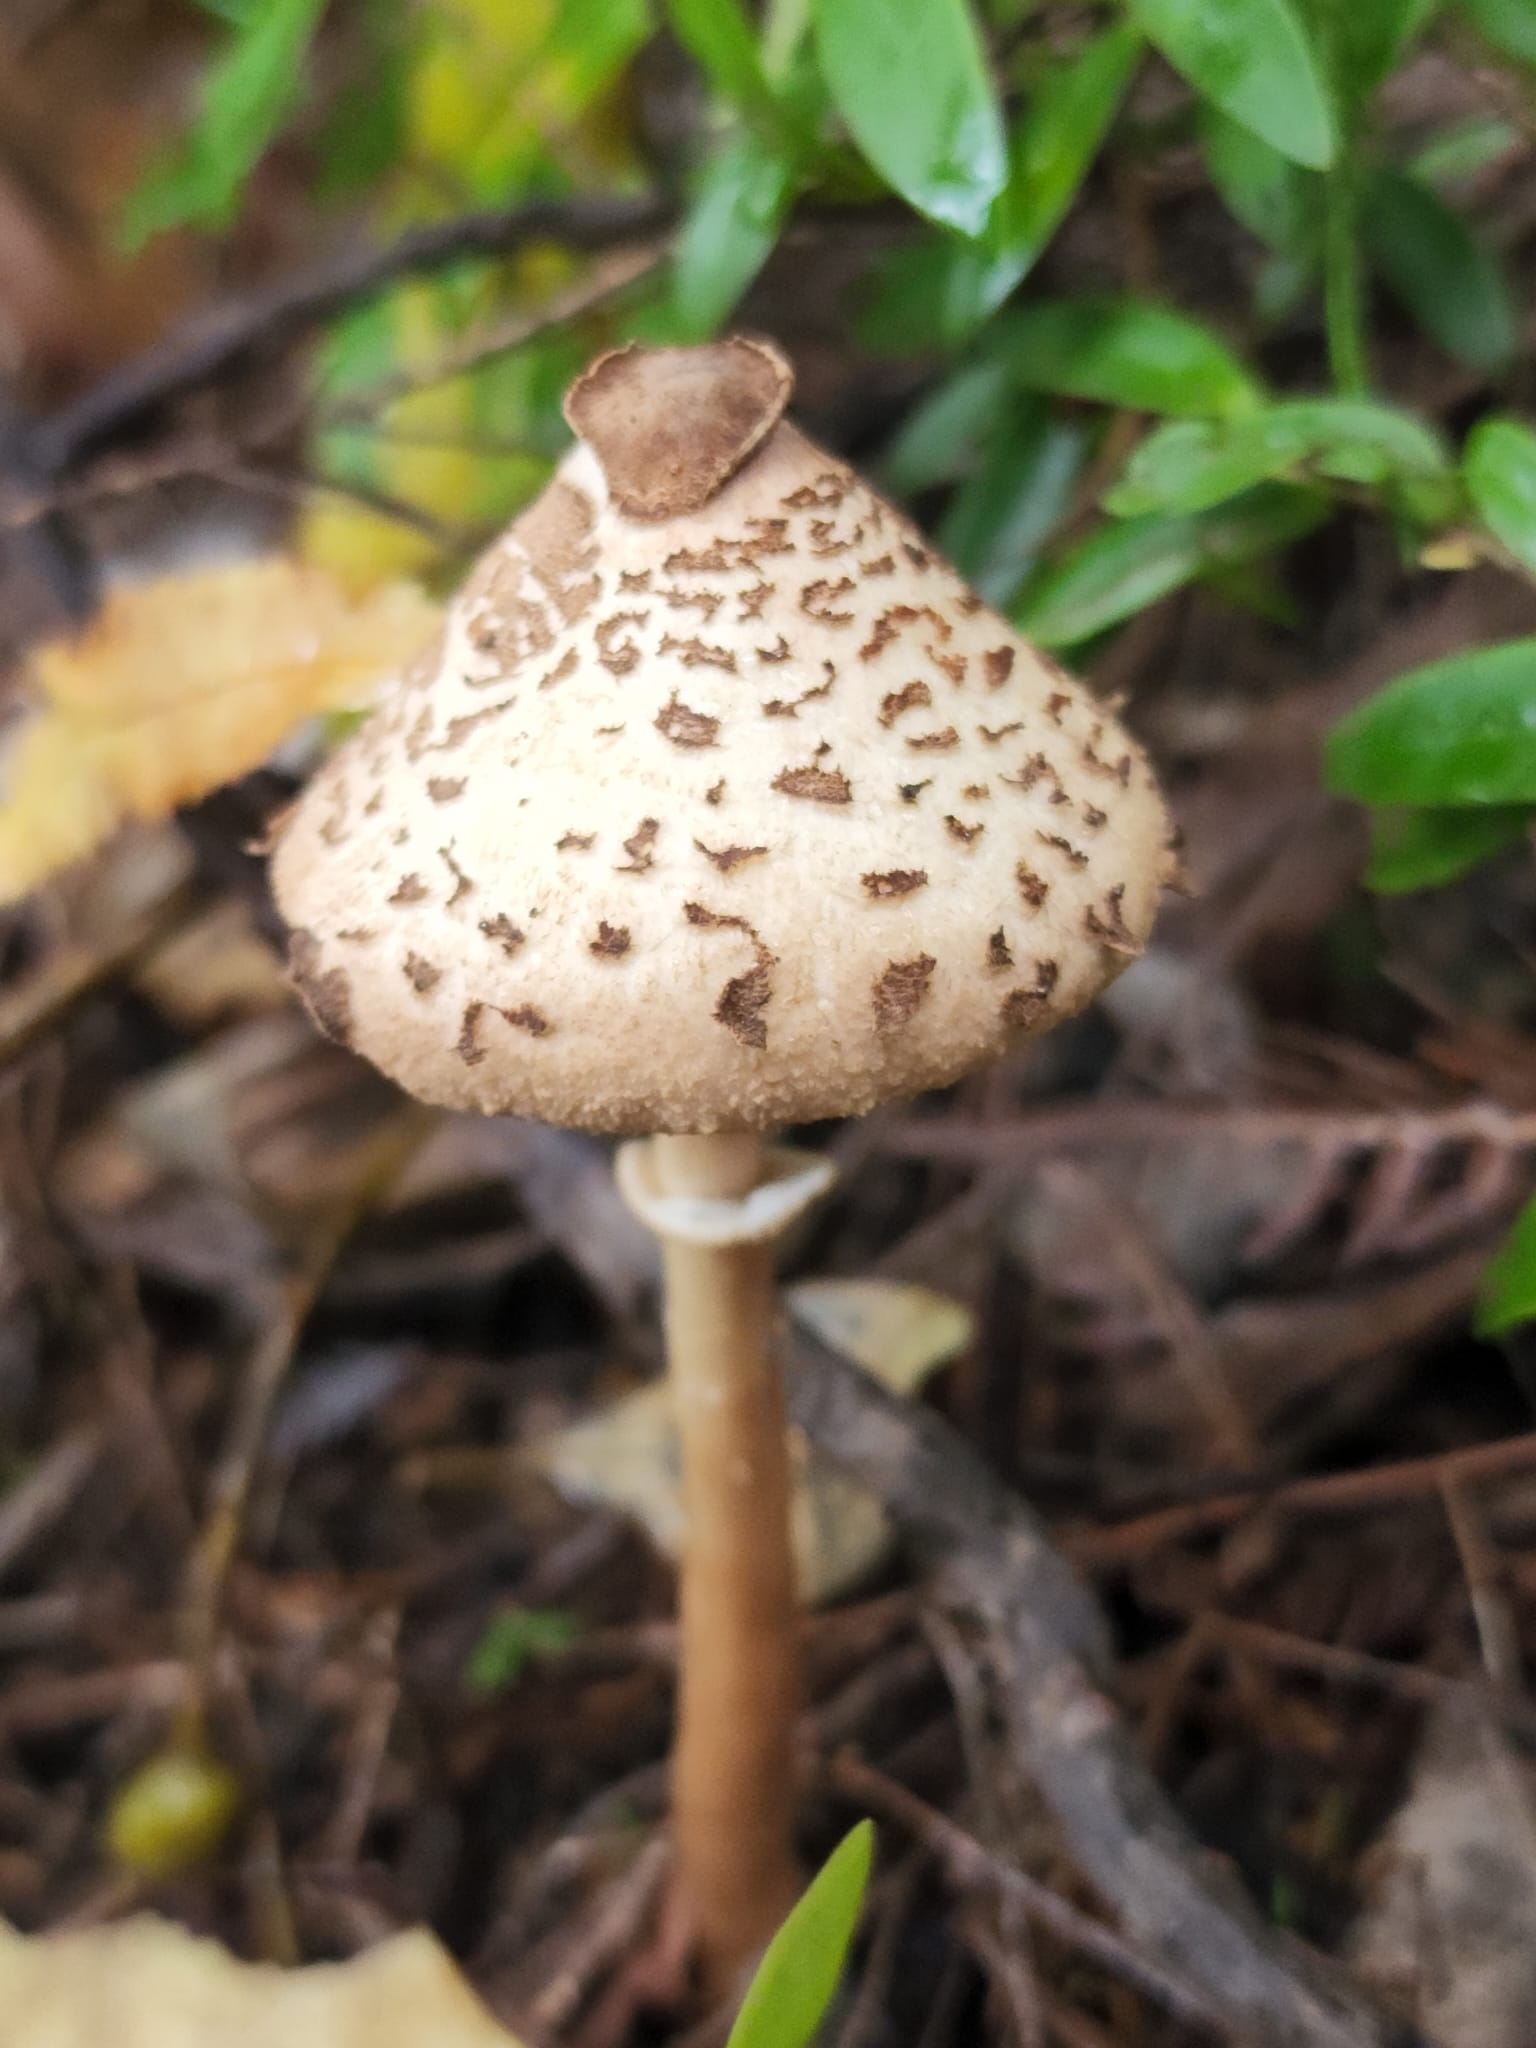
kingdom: Fungi
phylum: Basidiomycota
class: Agaricomycetes
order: Agaricales
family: Agaricaceae
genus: Macrolepiota
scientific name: Macrolepiota clelandii
